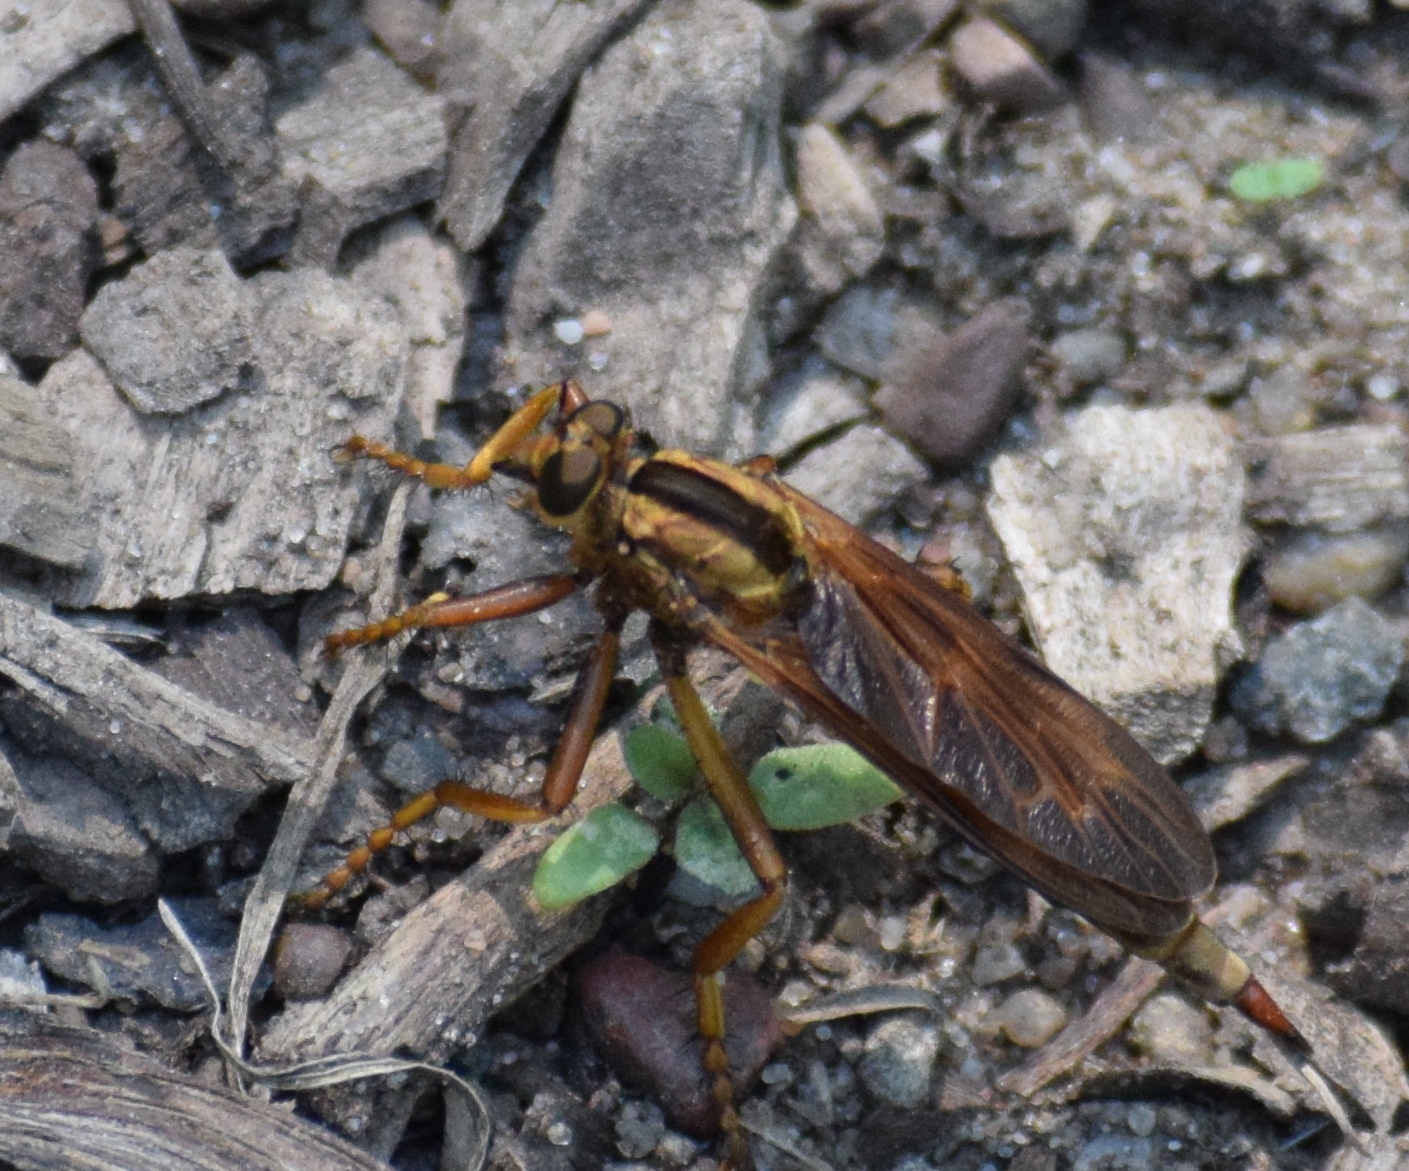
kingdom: Animalia
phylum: Arthropoda
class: Insecta
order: Diptera
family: Asilidae
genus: Asilus
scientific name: Asilus sericeus
